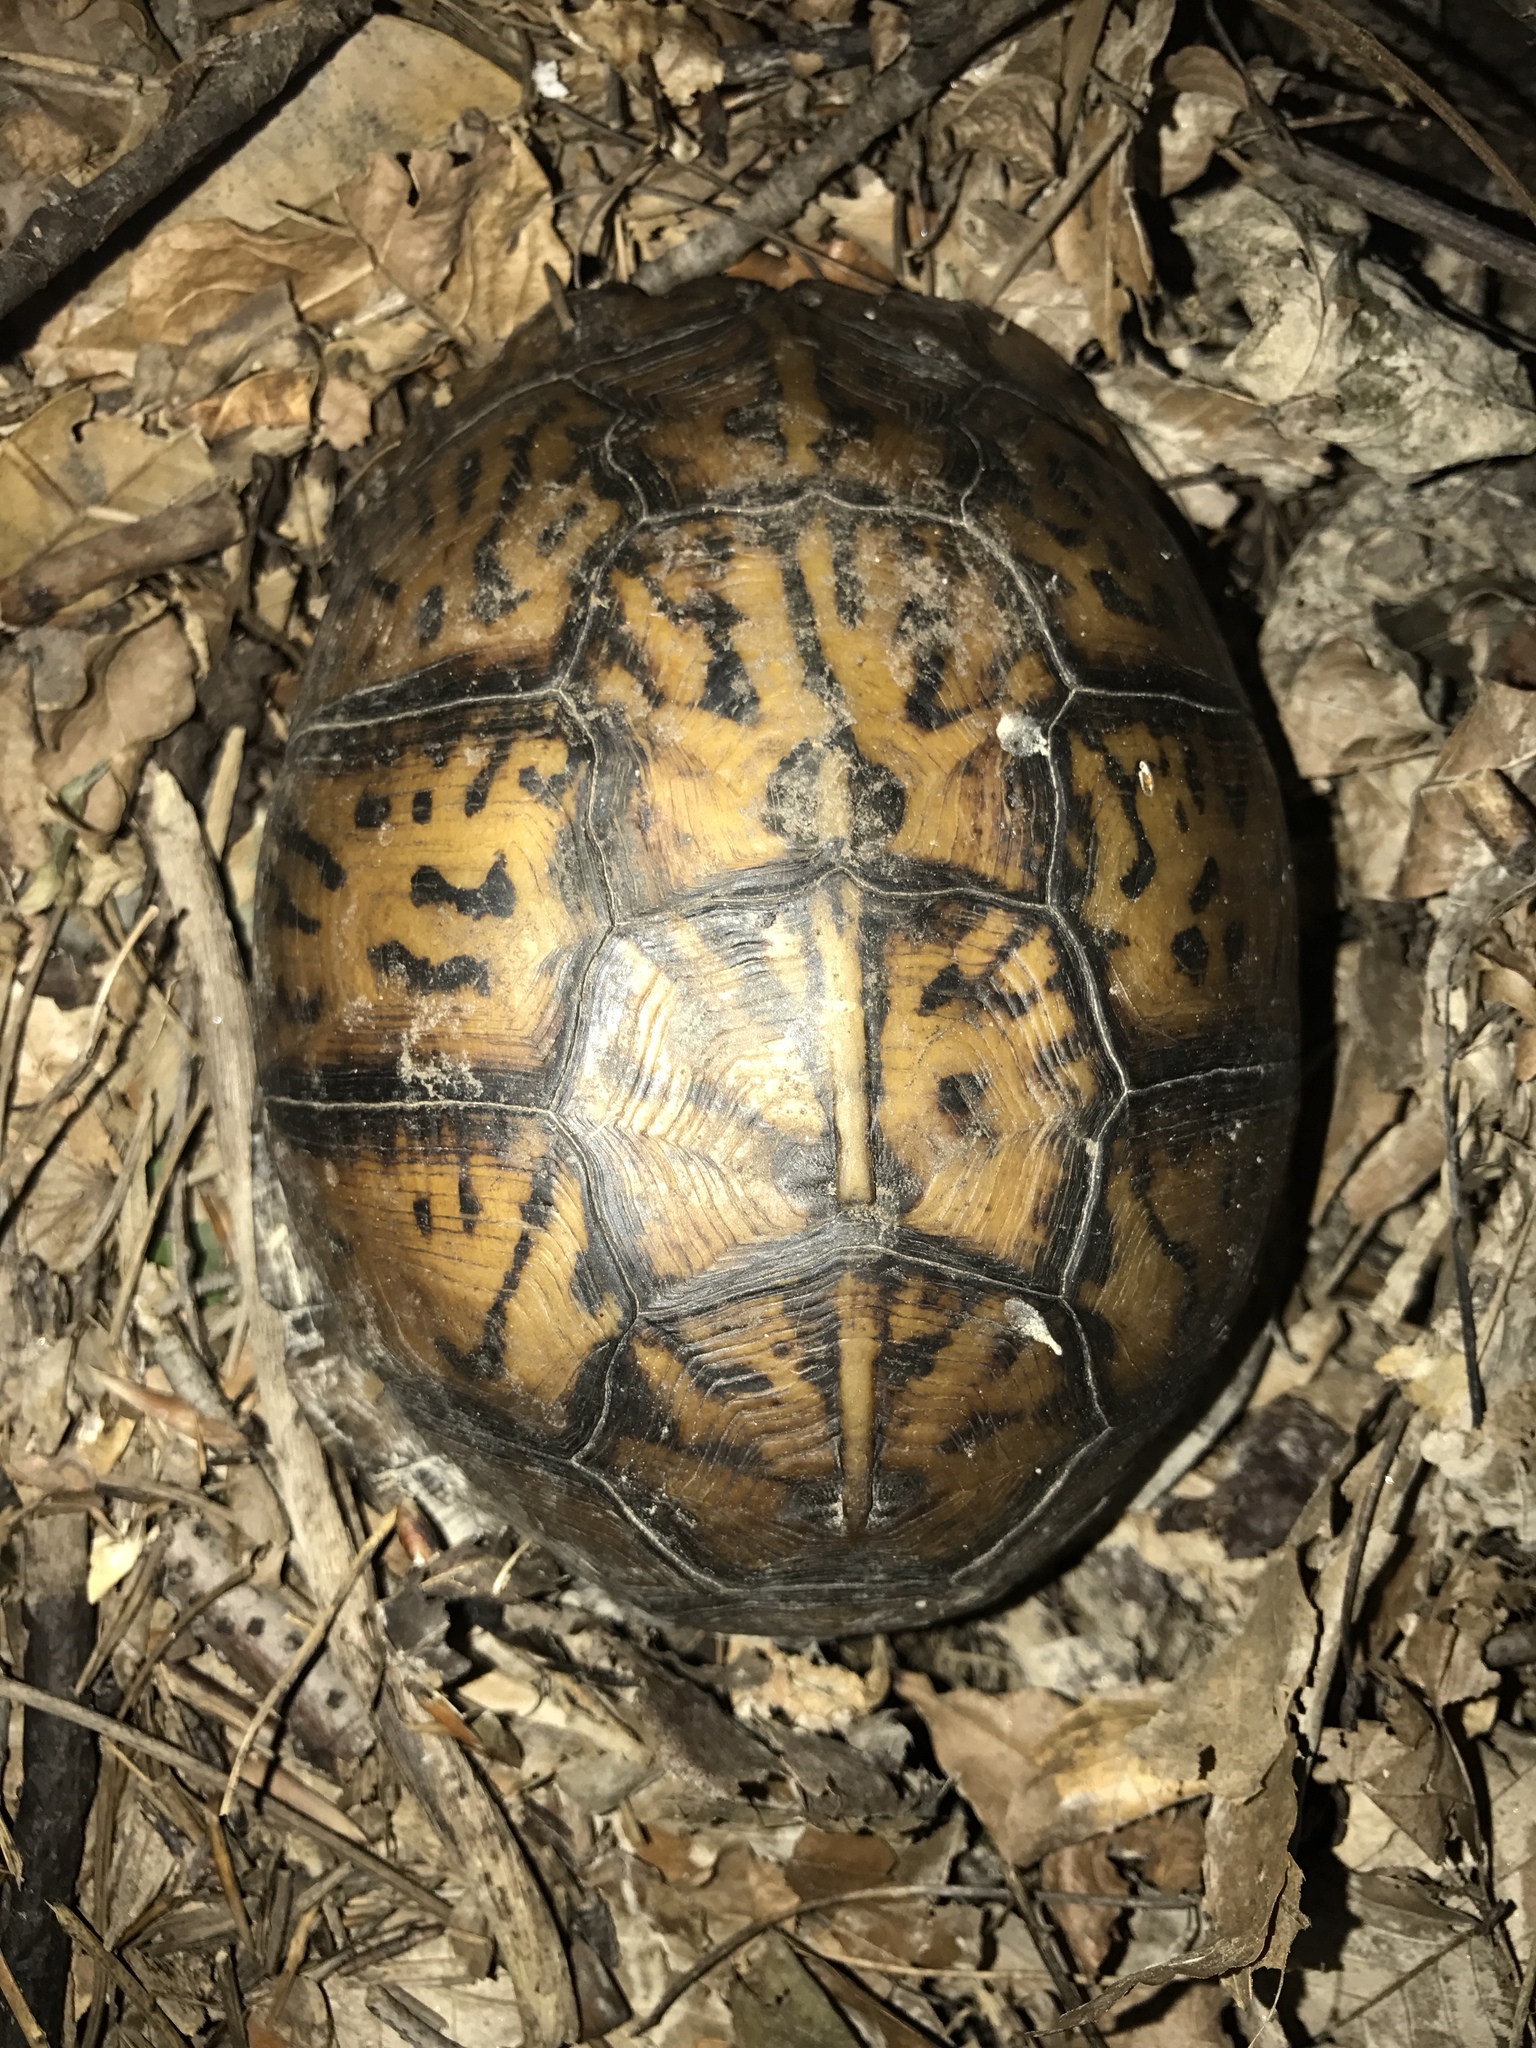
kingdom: Animalia
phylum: Chordata
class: Testudines
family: Emydidae
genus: Terrapene
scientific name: Terrapene carolina
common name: Common box turtle
